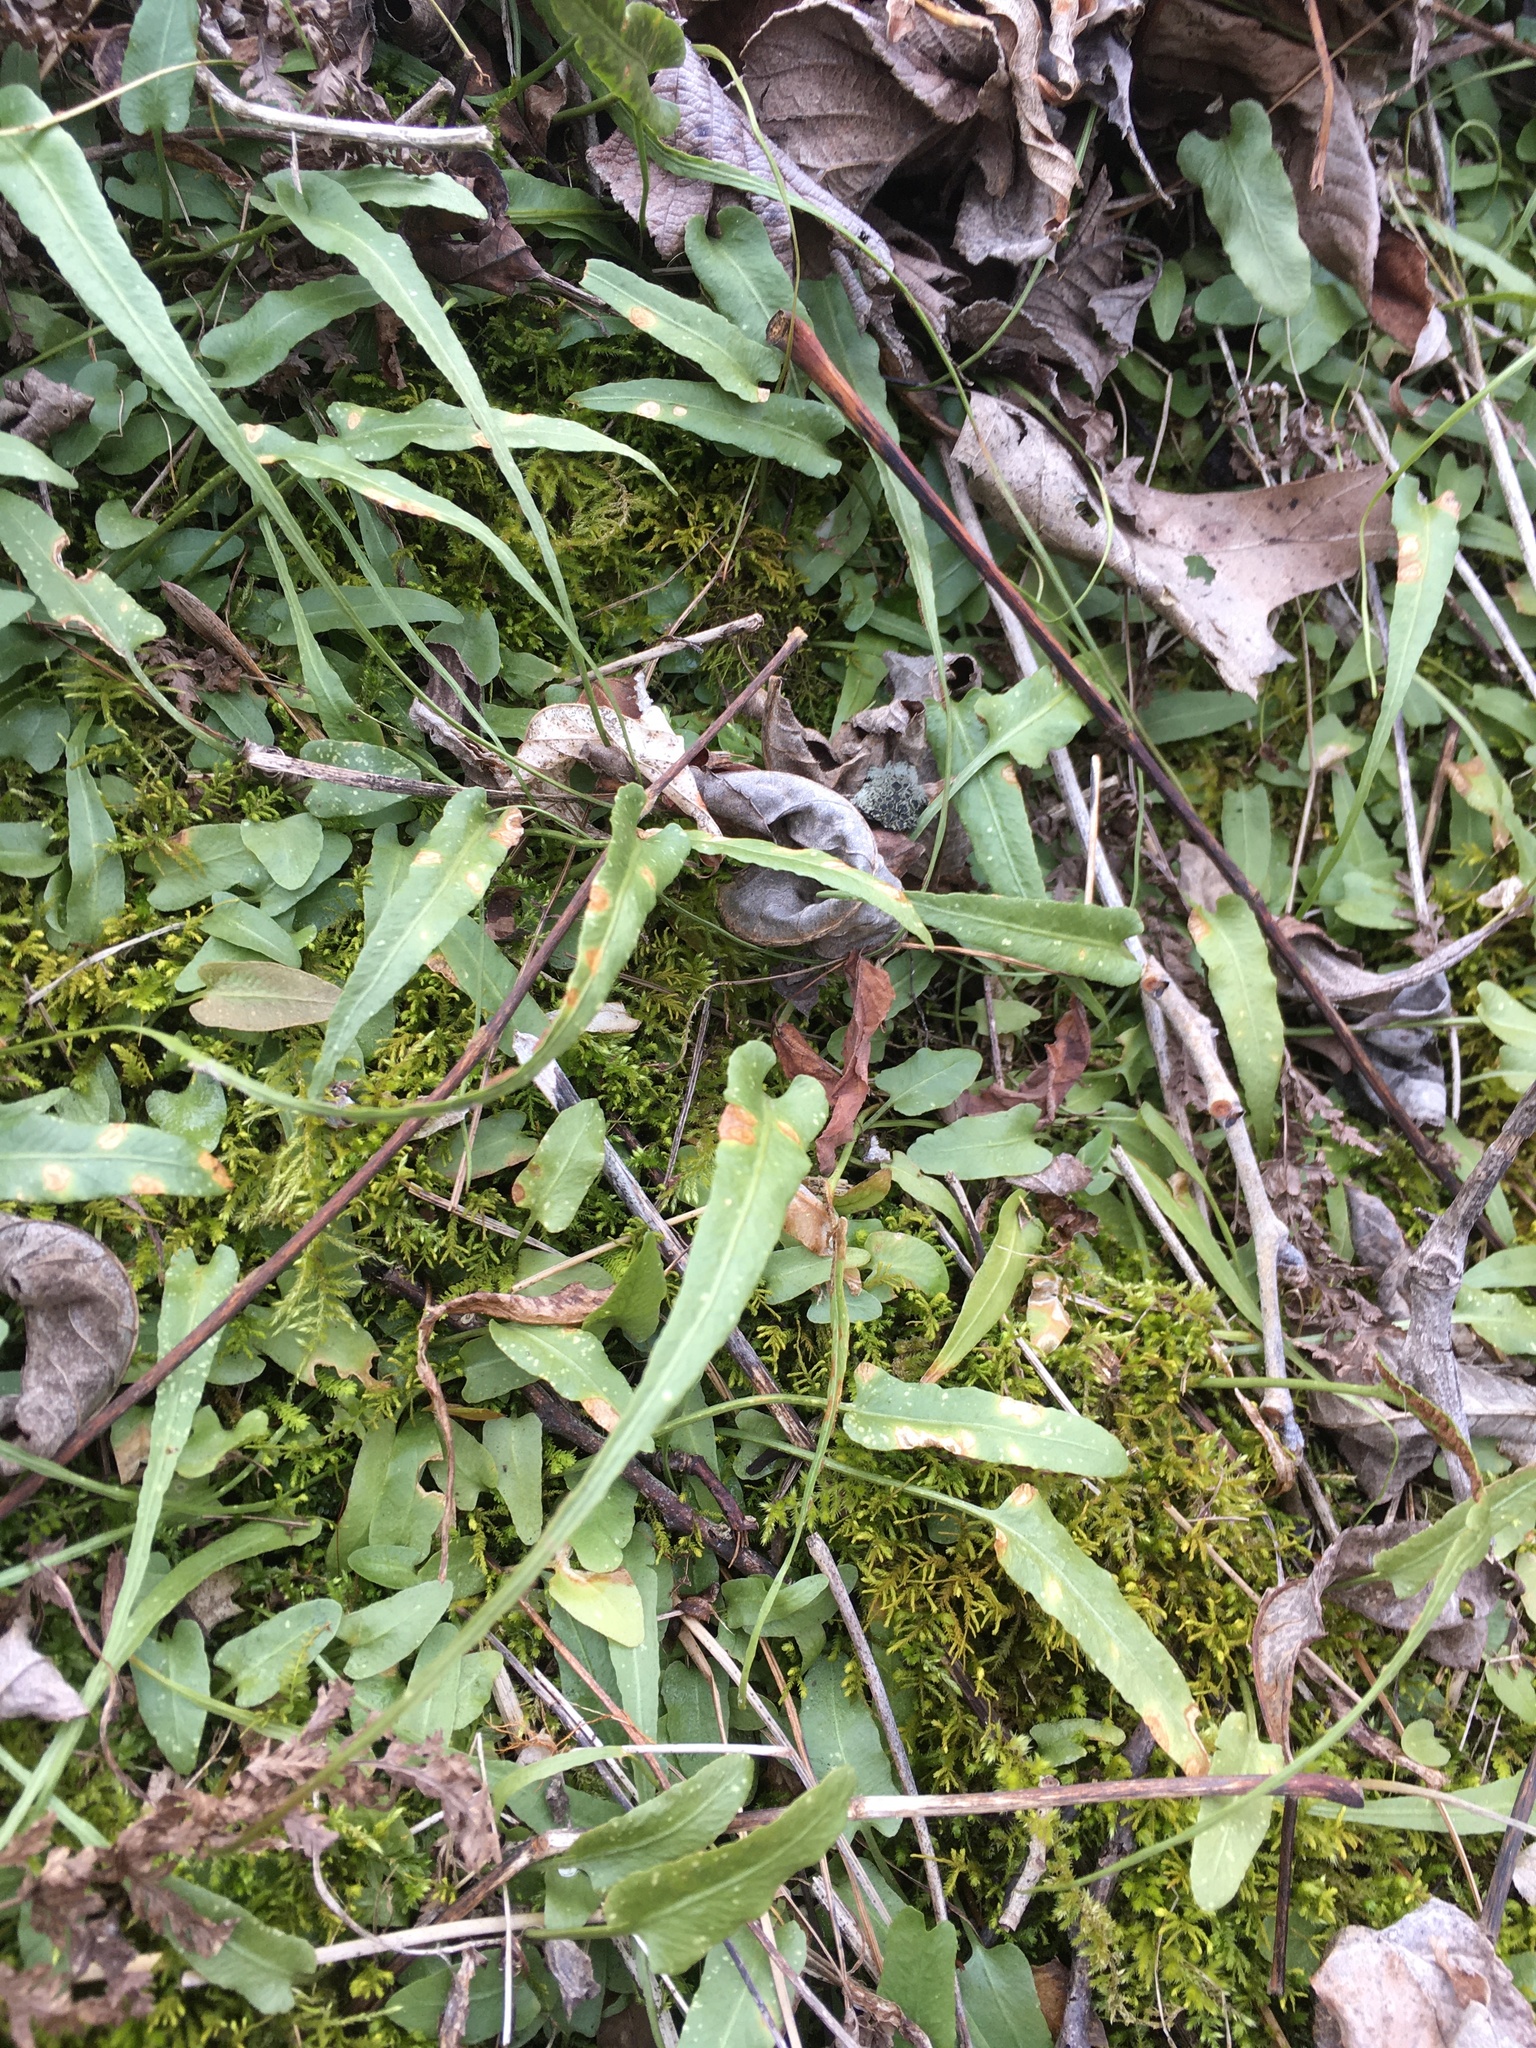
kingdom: Plantae
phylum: Tracheophyta
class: Polypodiopsida
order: Polypodiales
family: Aspleniaceae
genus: Asplenium
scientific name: Asplenium rhizophyllum
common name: Walking fern
